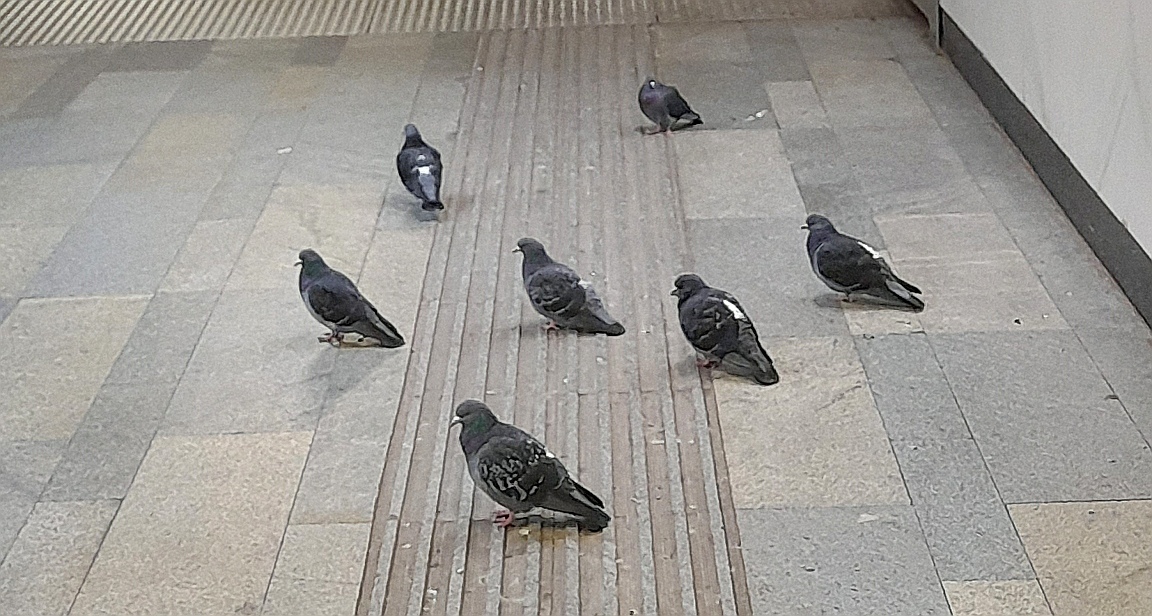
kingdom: Animalia
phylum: Chordata
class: Aves
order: Columbiformes
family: Columbidae
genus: Columba
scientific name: Columba livia
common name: Rock pigeon
